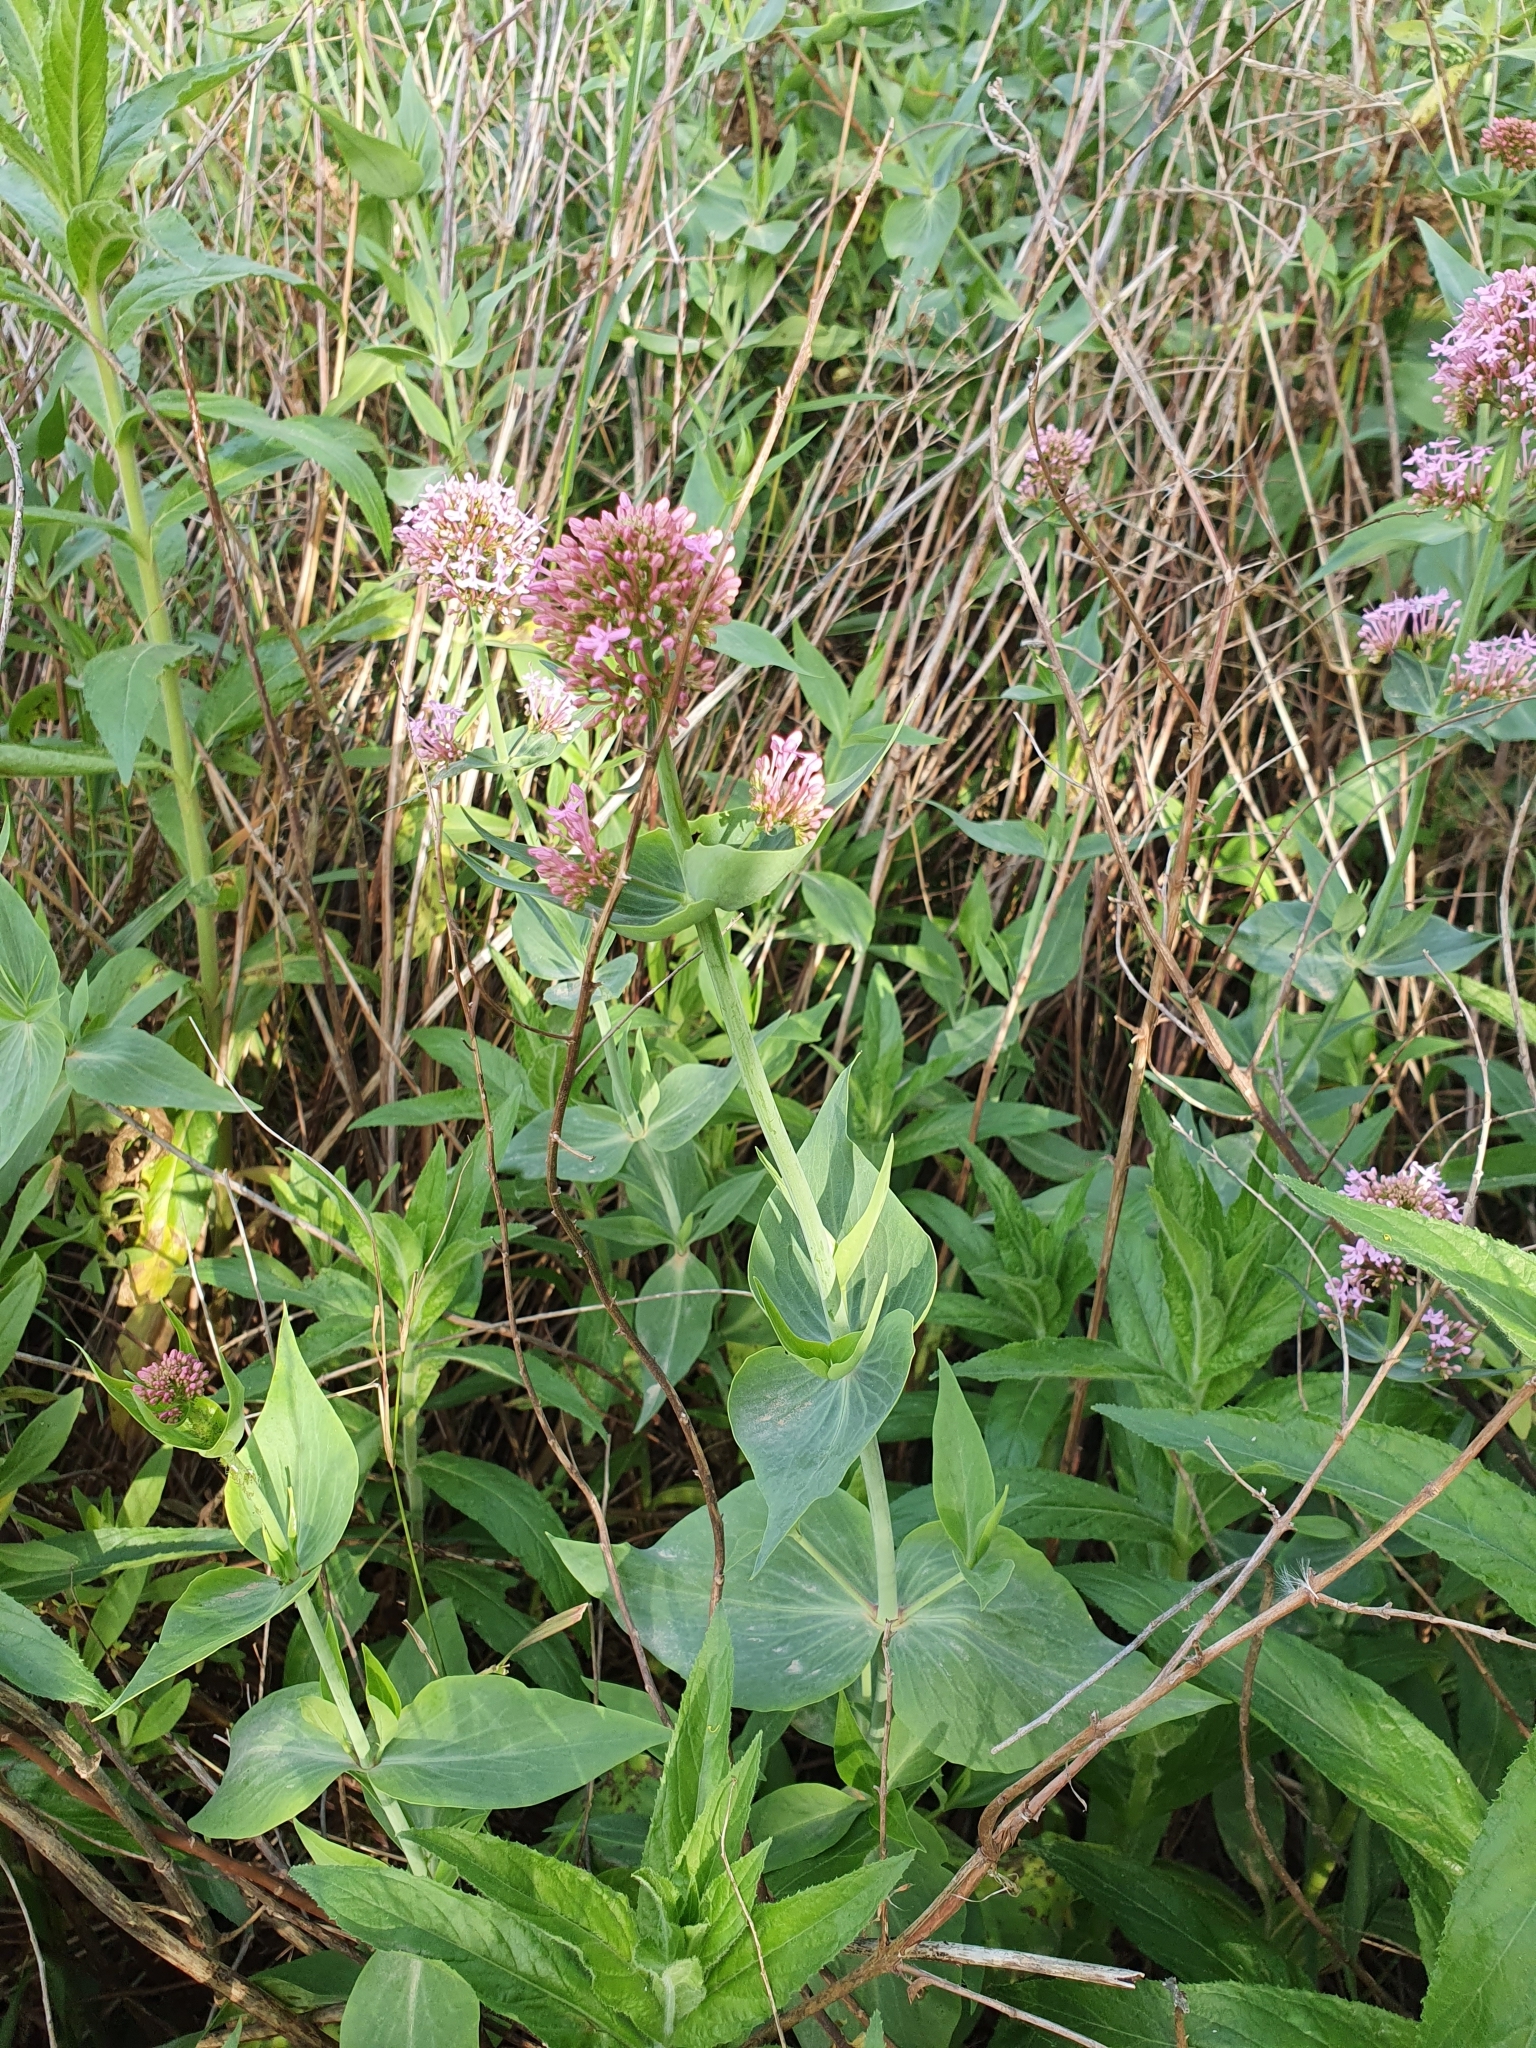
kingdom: Plantae
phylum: Tracheophyta
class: Magnoliopsida
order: Dipsacales
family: Caprifoliaceae
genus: Centranthus
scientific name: Centranthus ruber
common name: Red valerian
